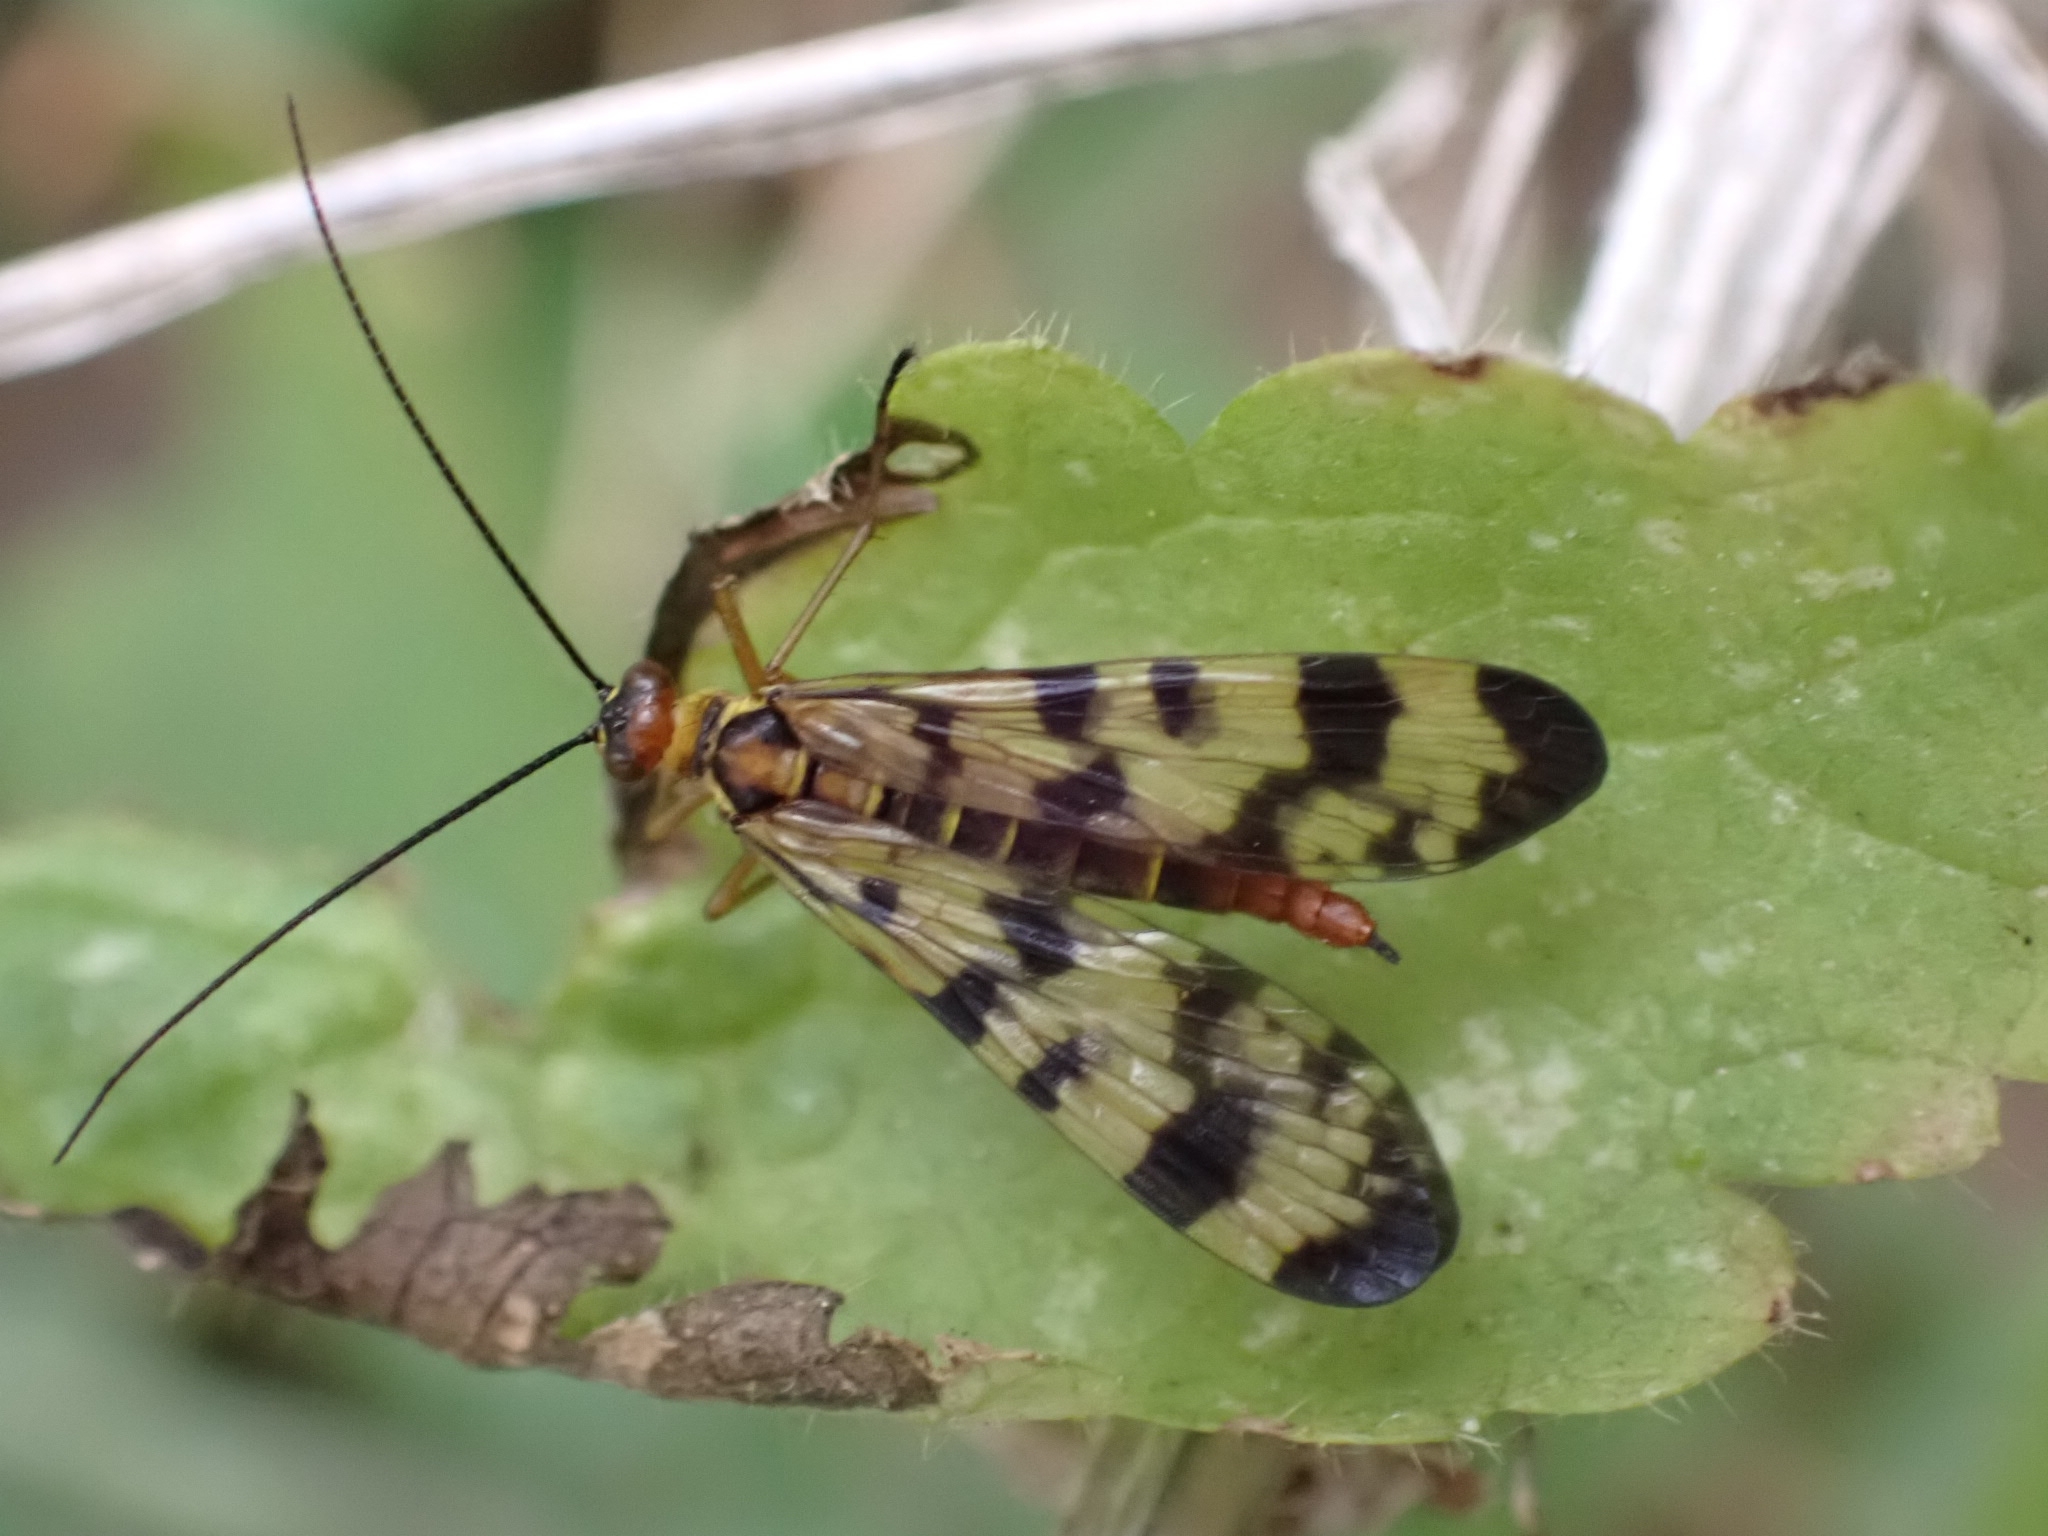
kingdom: Animalia
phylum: Arthropoda
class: Insecta
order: Mecoptera
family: Panorpidae
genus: Panorpa
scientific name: Panorpa meridionalis
